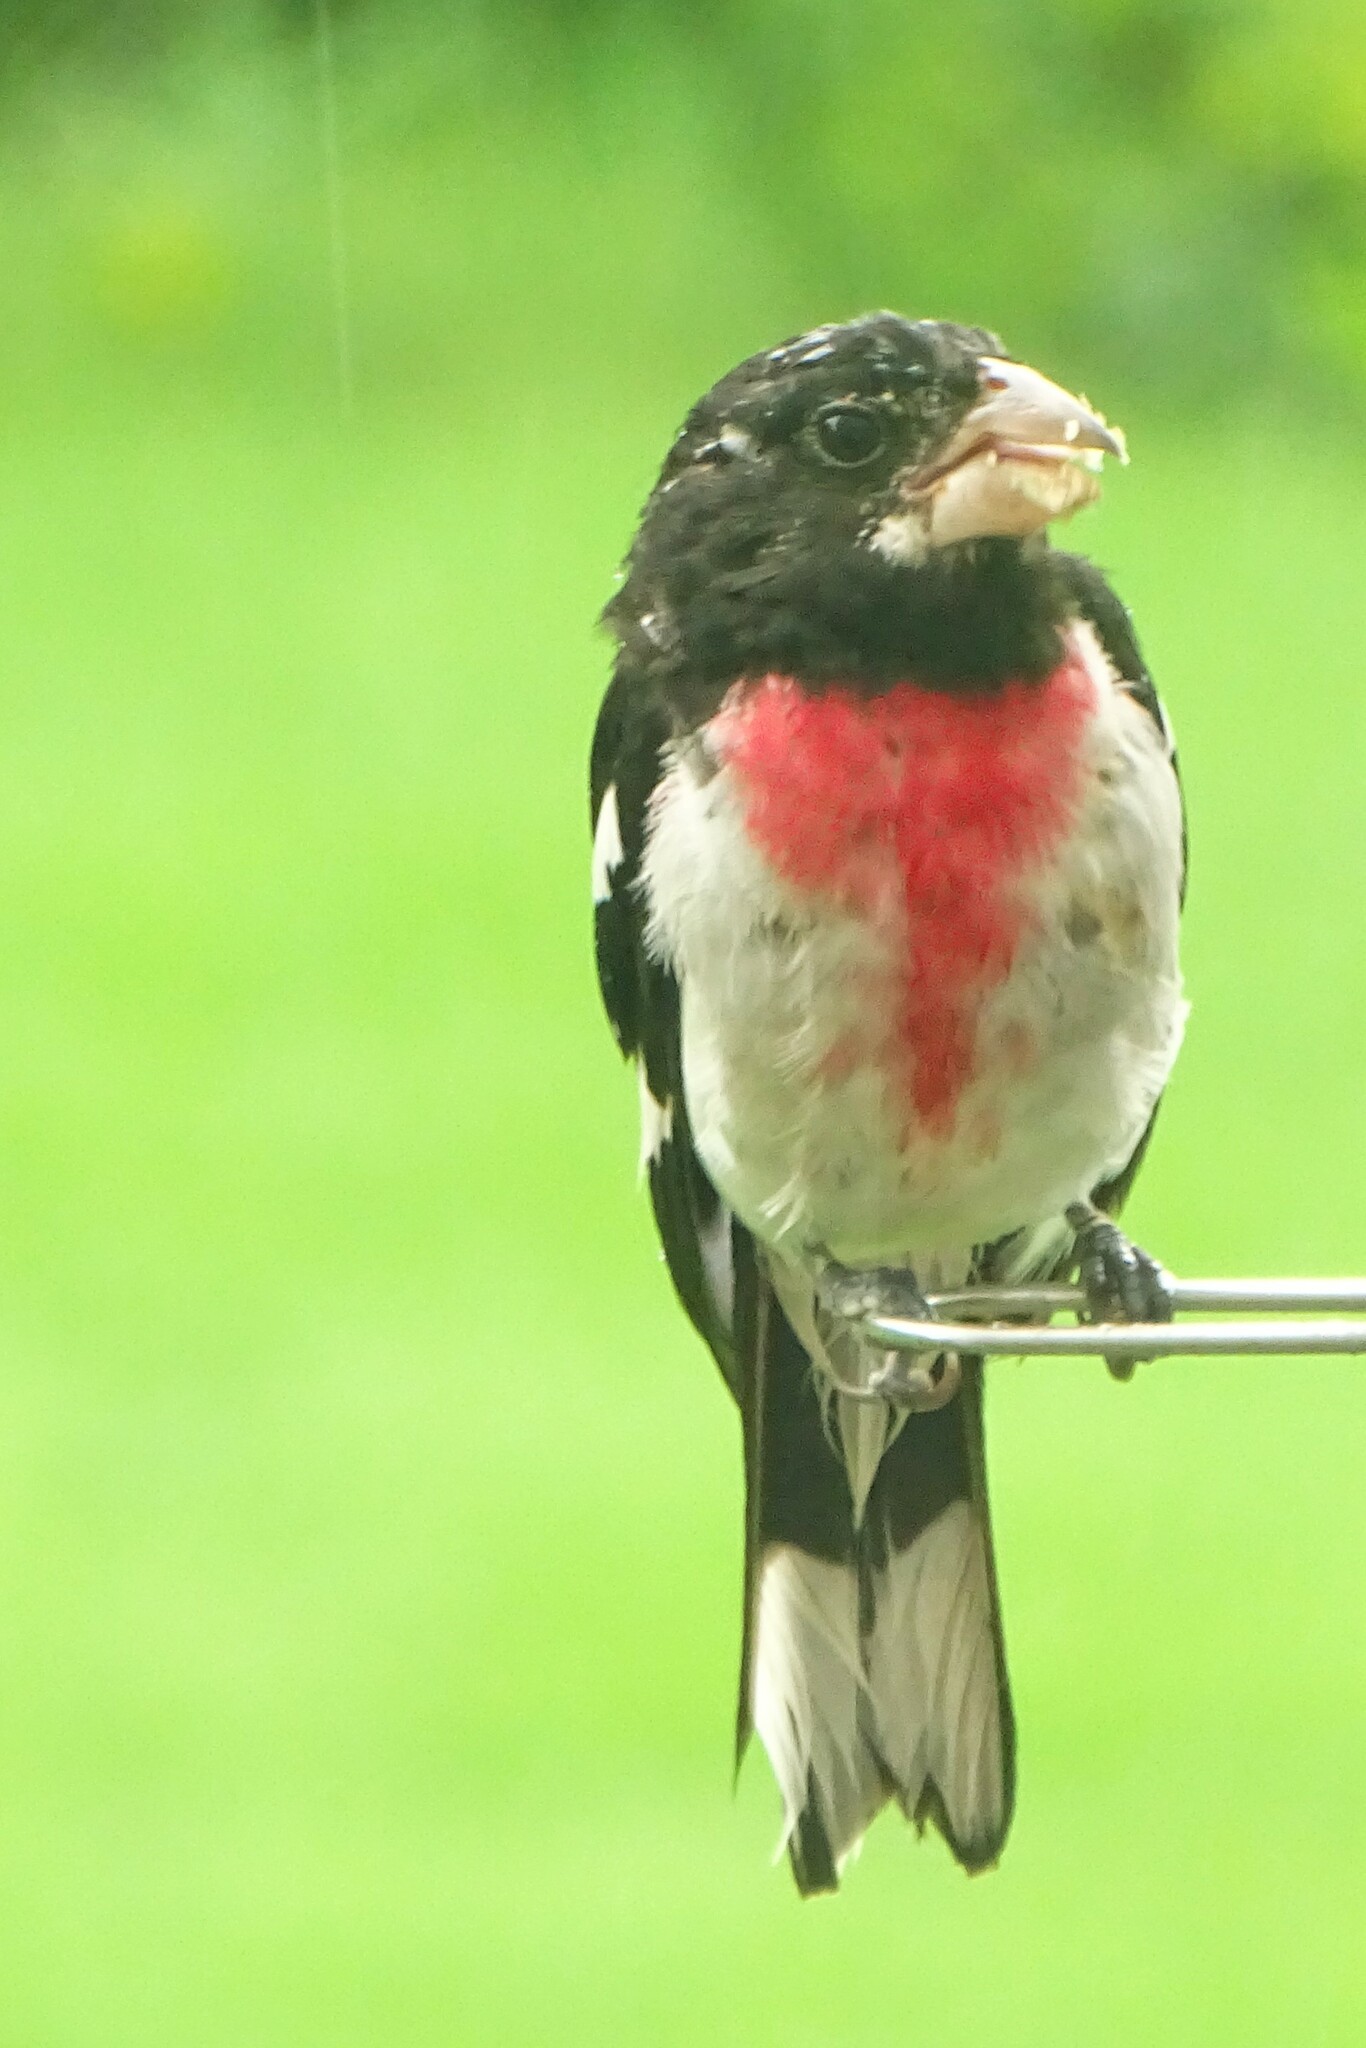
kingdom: Animalia
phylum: Chordata
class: Aves
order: Passeriformes
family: Cardinalidae
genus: Pheucticus
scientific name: Pheucticus ludovicianus
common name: Rose-breasted grosbeak
